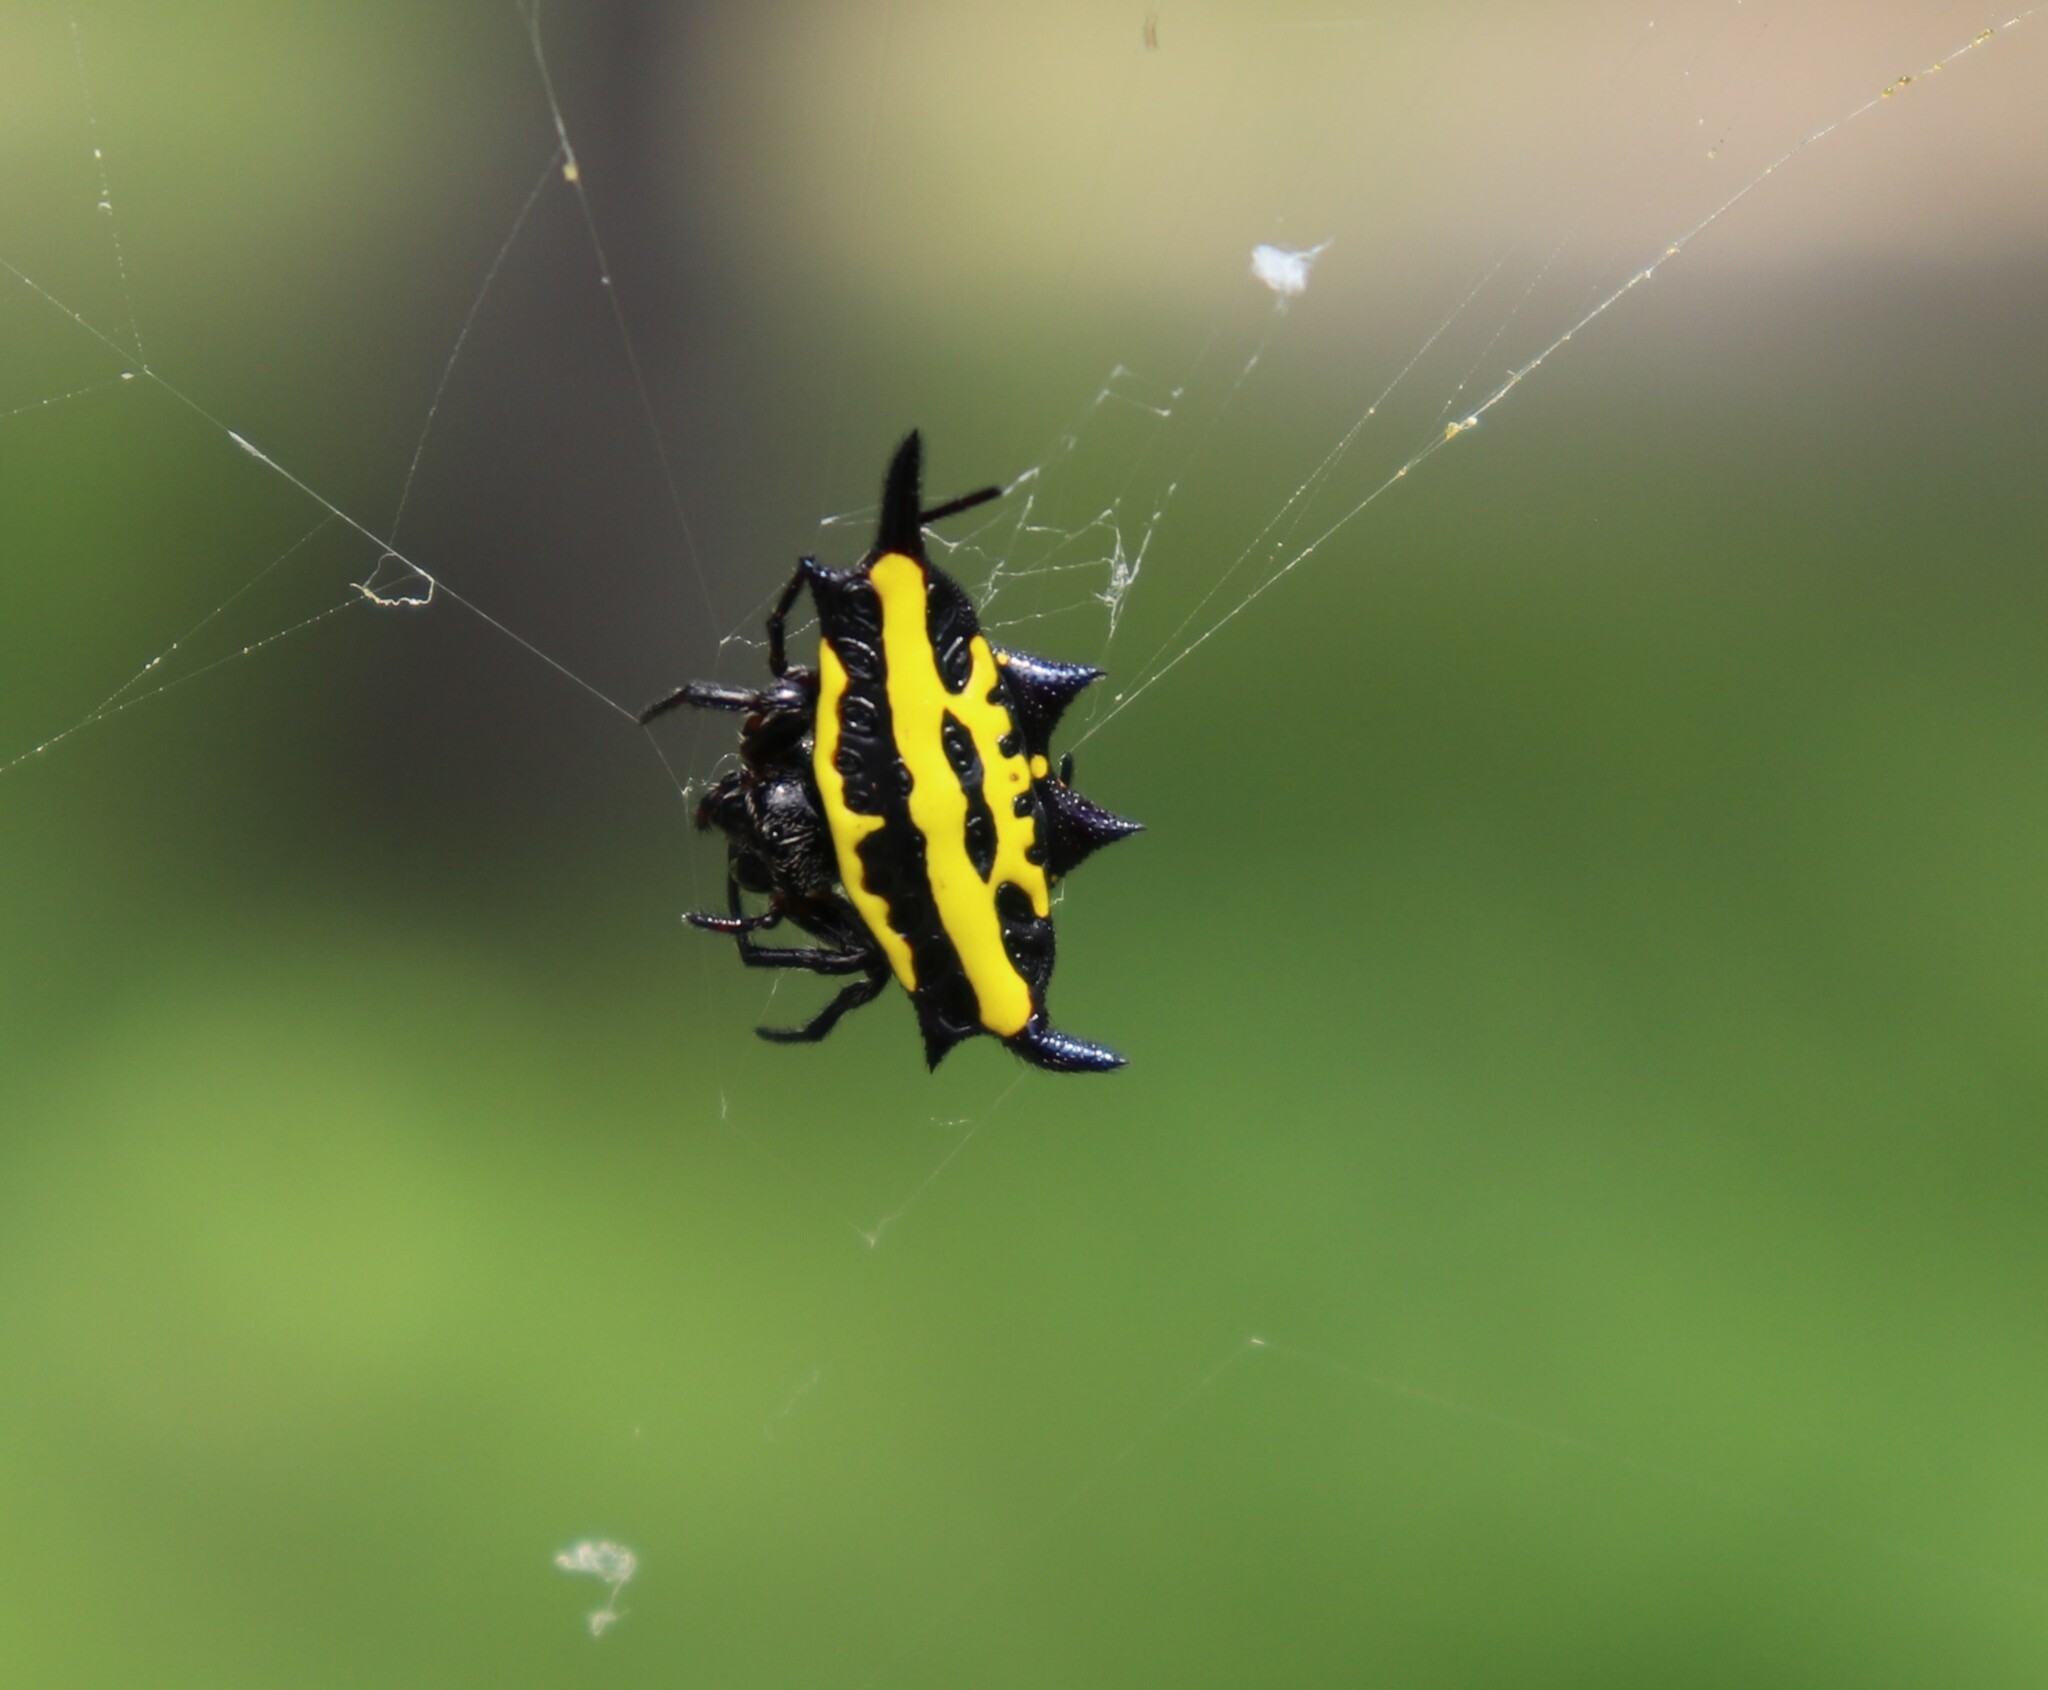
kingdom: Animalia
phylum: Arthropoda
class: Arachnida
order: Araneae
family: Araneidae
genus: Gasteracantha
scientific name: Gasteracantha panisicca
